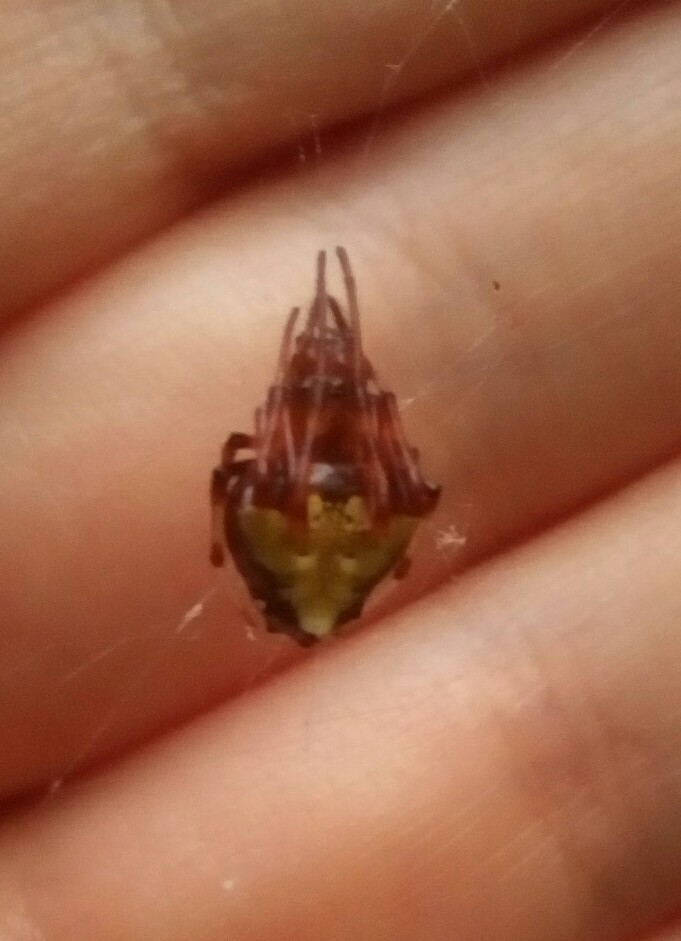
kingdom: Animalia
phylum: Arthropoda
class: Arachnida
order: Araneae
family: Araneidae
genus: Verrucosa
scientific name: Verrucosa arenata
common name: Orb weavers
